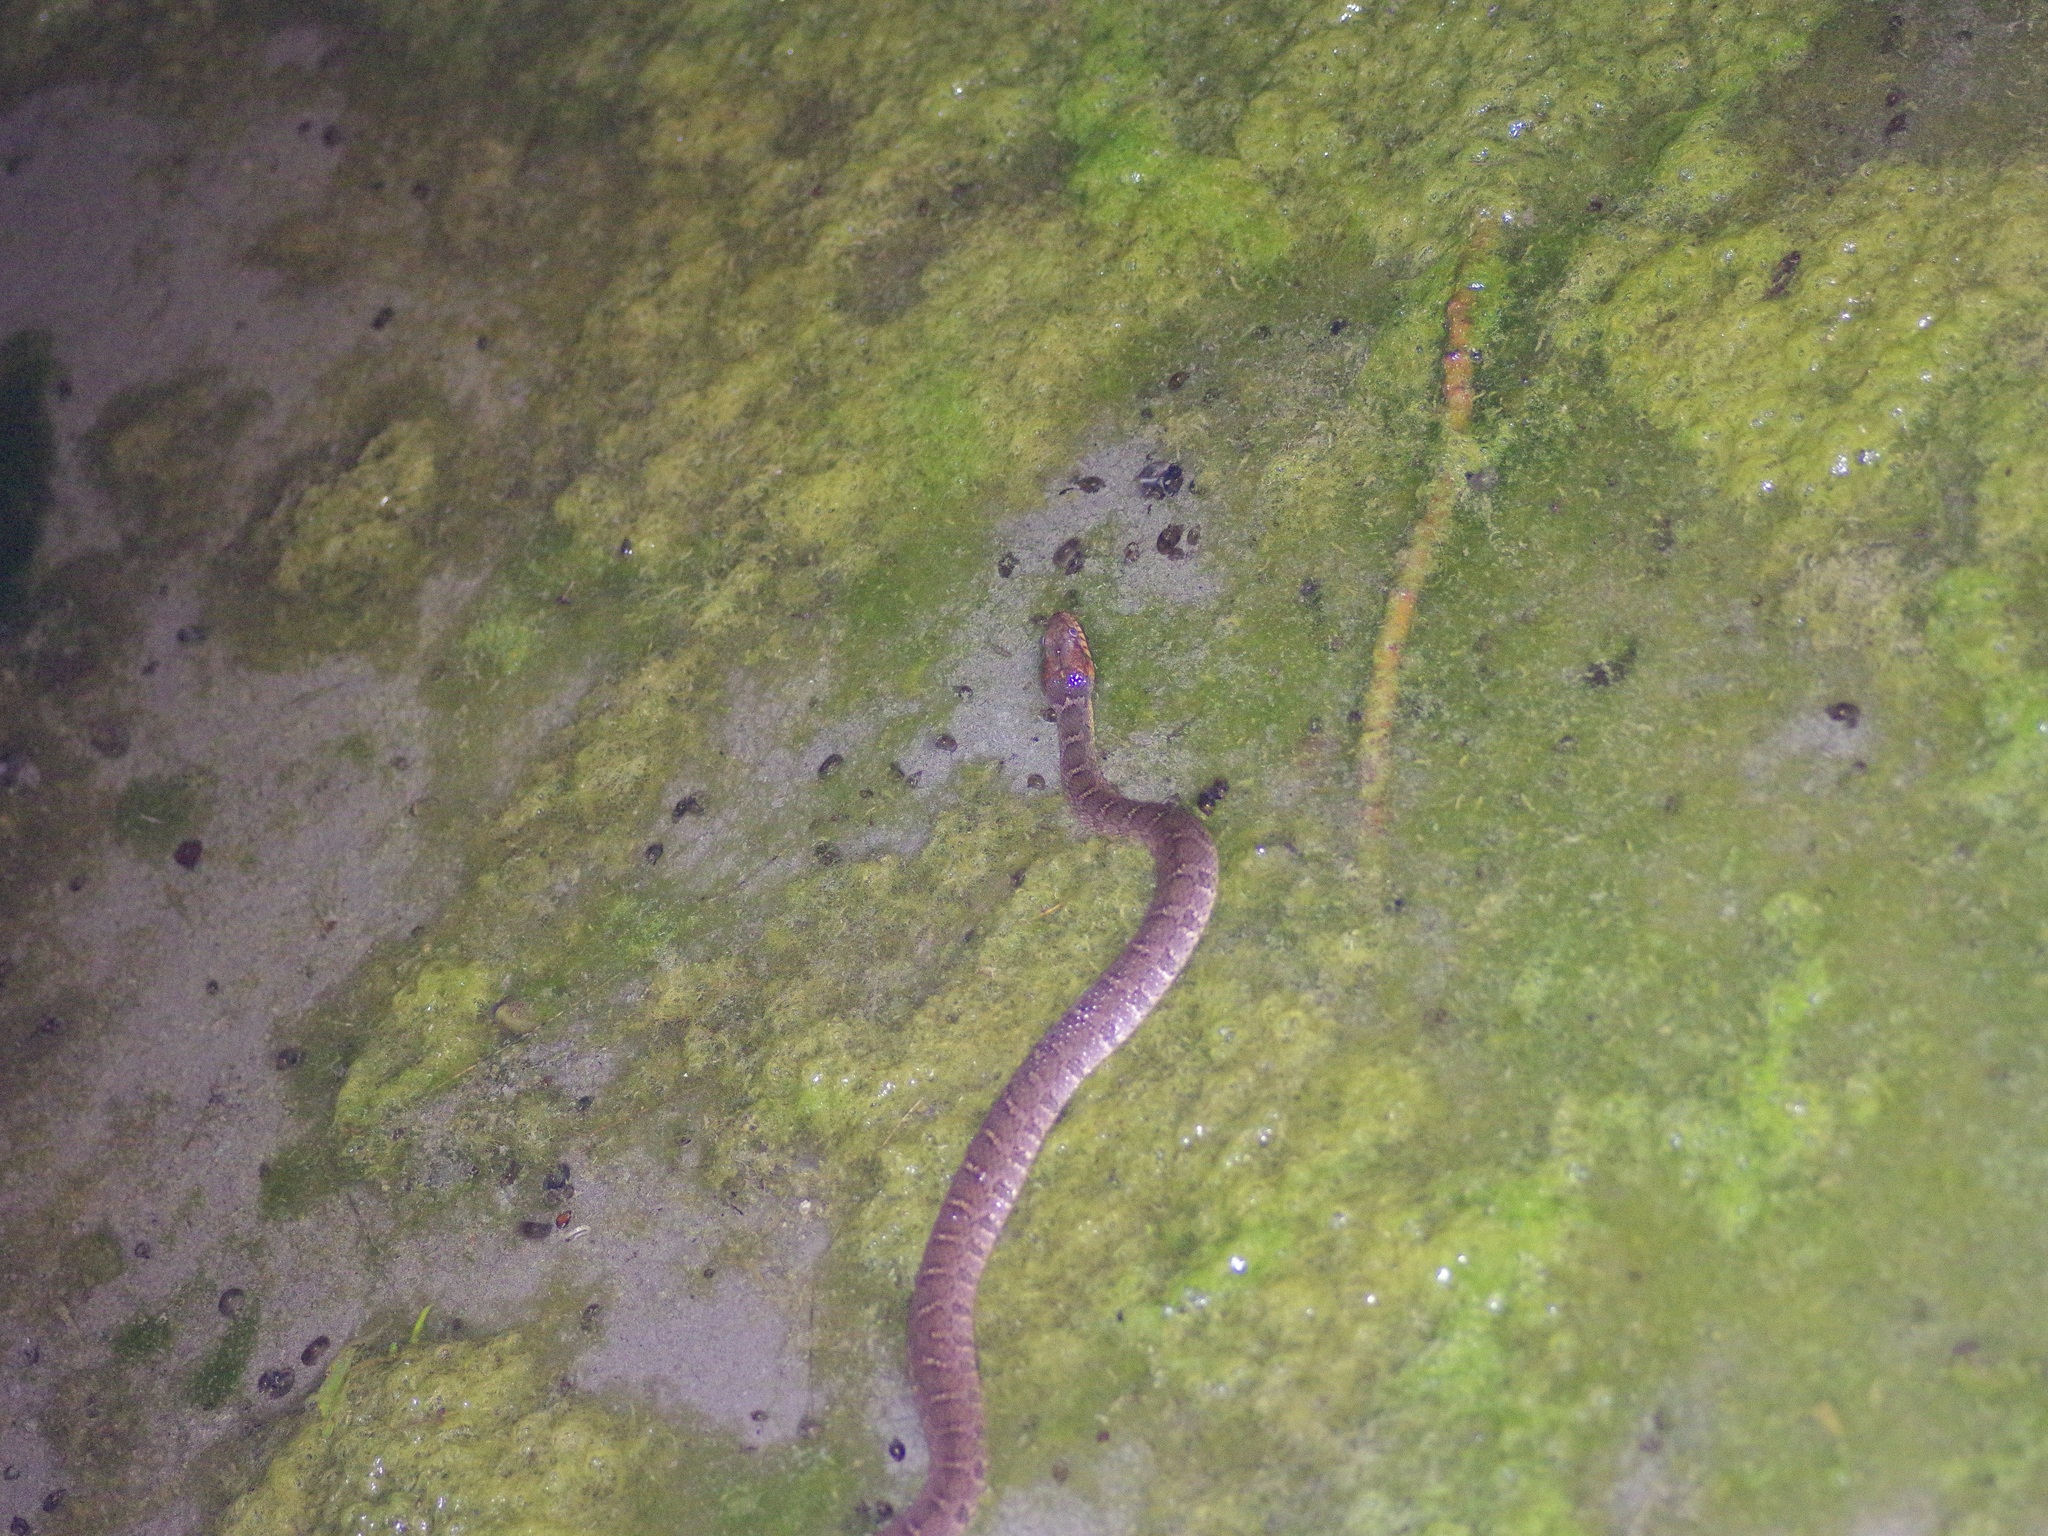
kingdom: Animalia
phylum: Chordata
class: Squamata
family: Colubridae
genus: Nerodia
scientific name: Nerodia erythrogaster
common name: Plainbelly water snake
